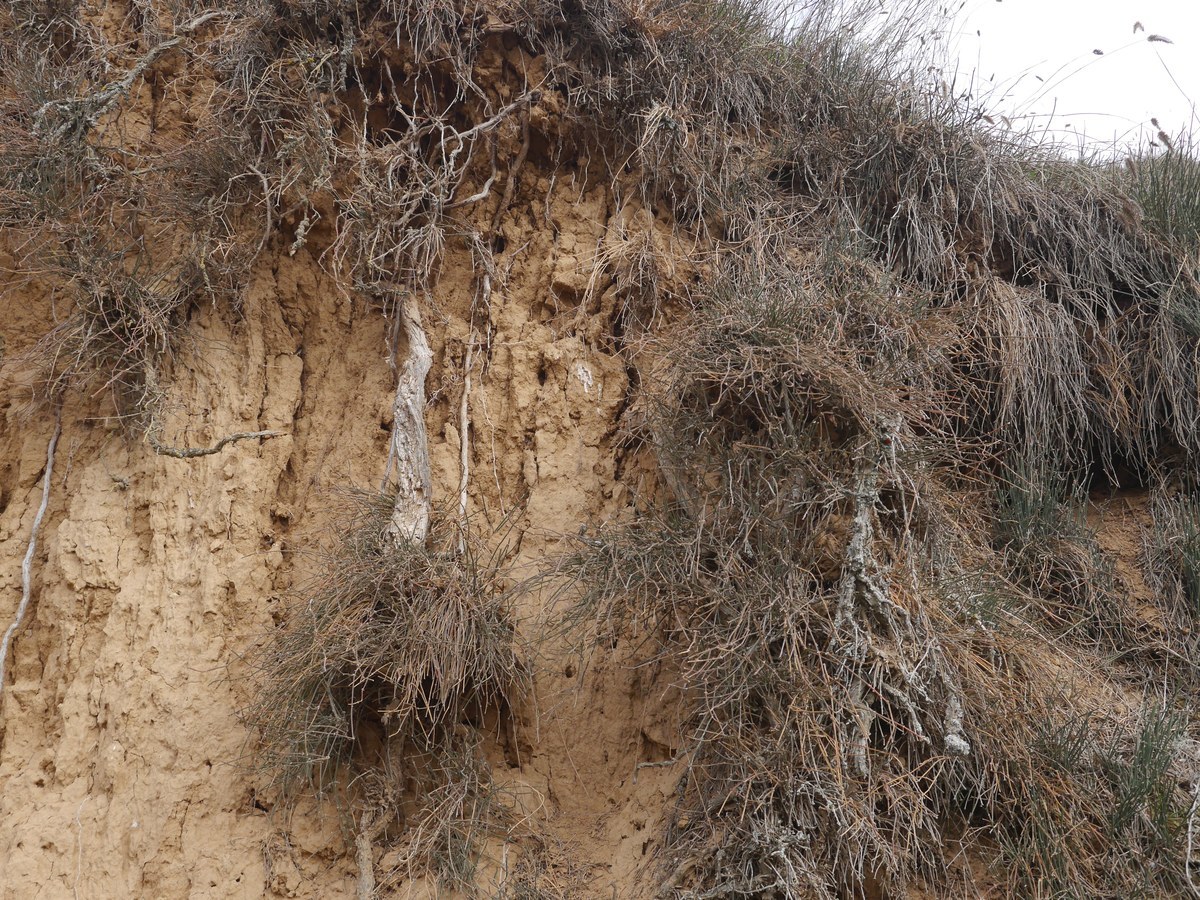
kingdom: Plantae
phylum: Tracheophyta
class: Gnetopsida
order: Ephedrales
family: Ephedraceae
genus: Ephedra
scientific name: Ephedra distachya
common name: Sea grape
